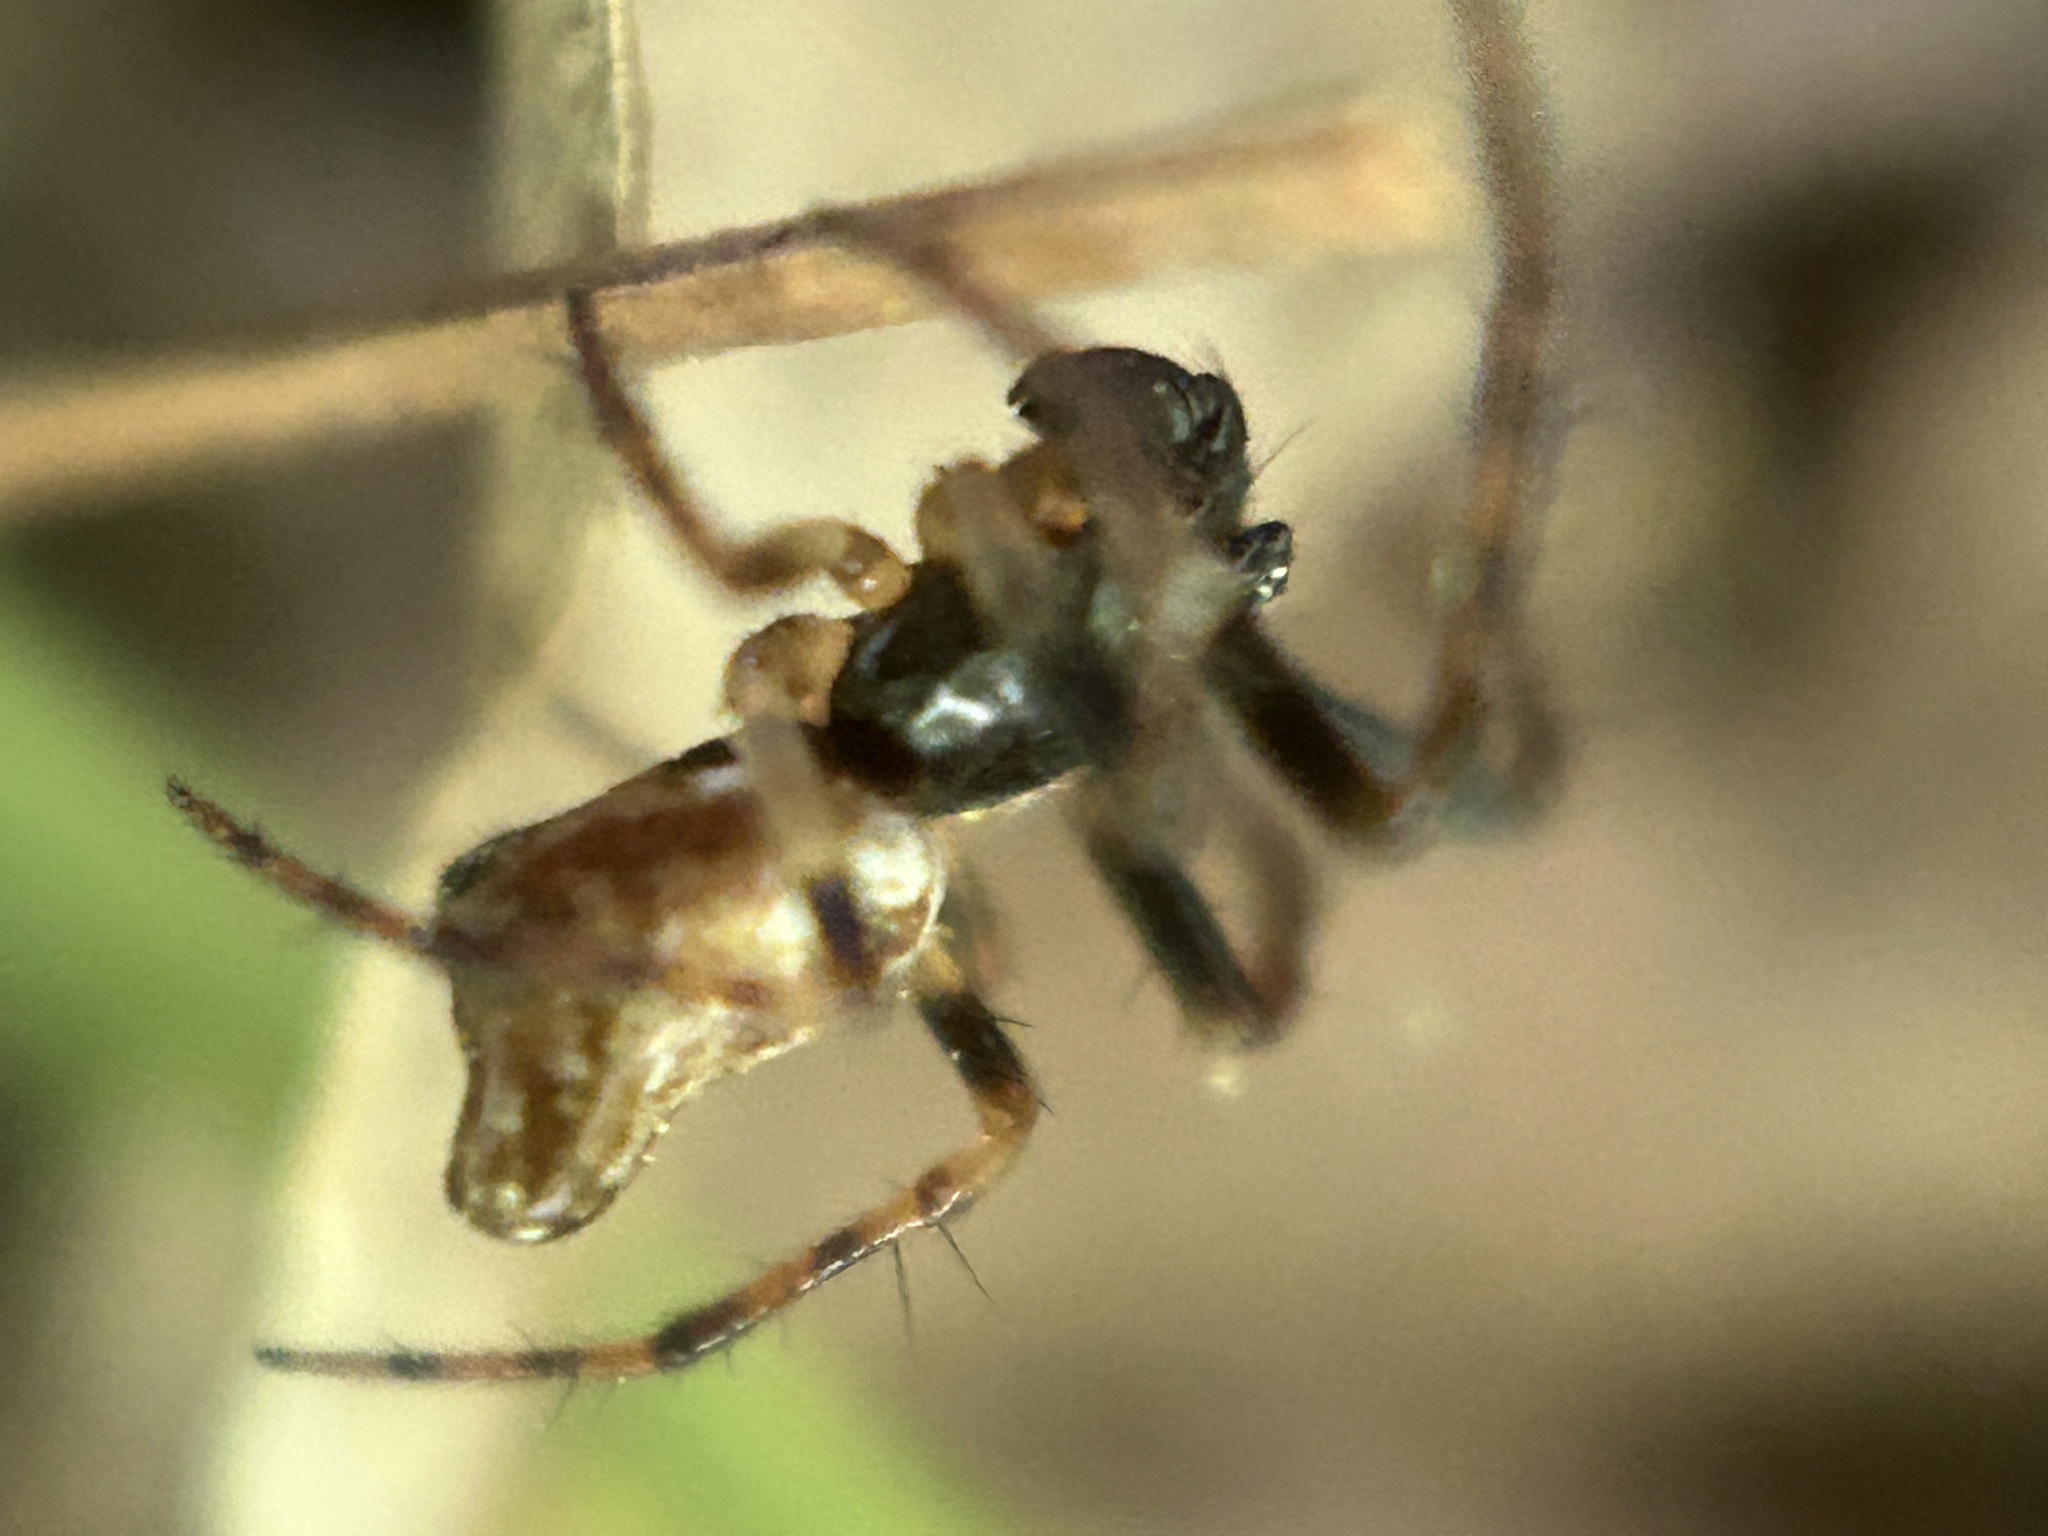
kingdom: Animalia
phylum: Arthropoda
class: Arachnida
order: Araneae
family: Araneidae
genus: Cyclosa
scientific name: Cyclosa conica
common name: Conical trashline orbweaver
